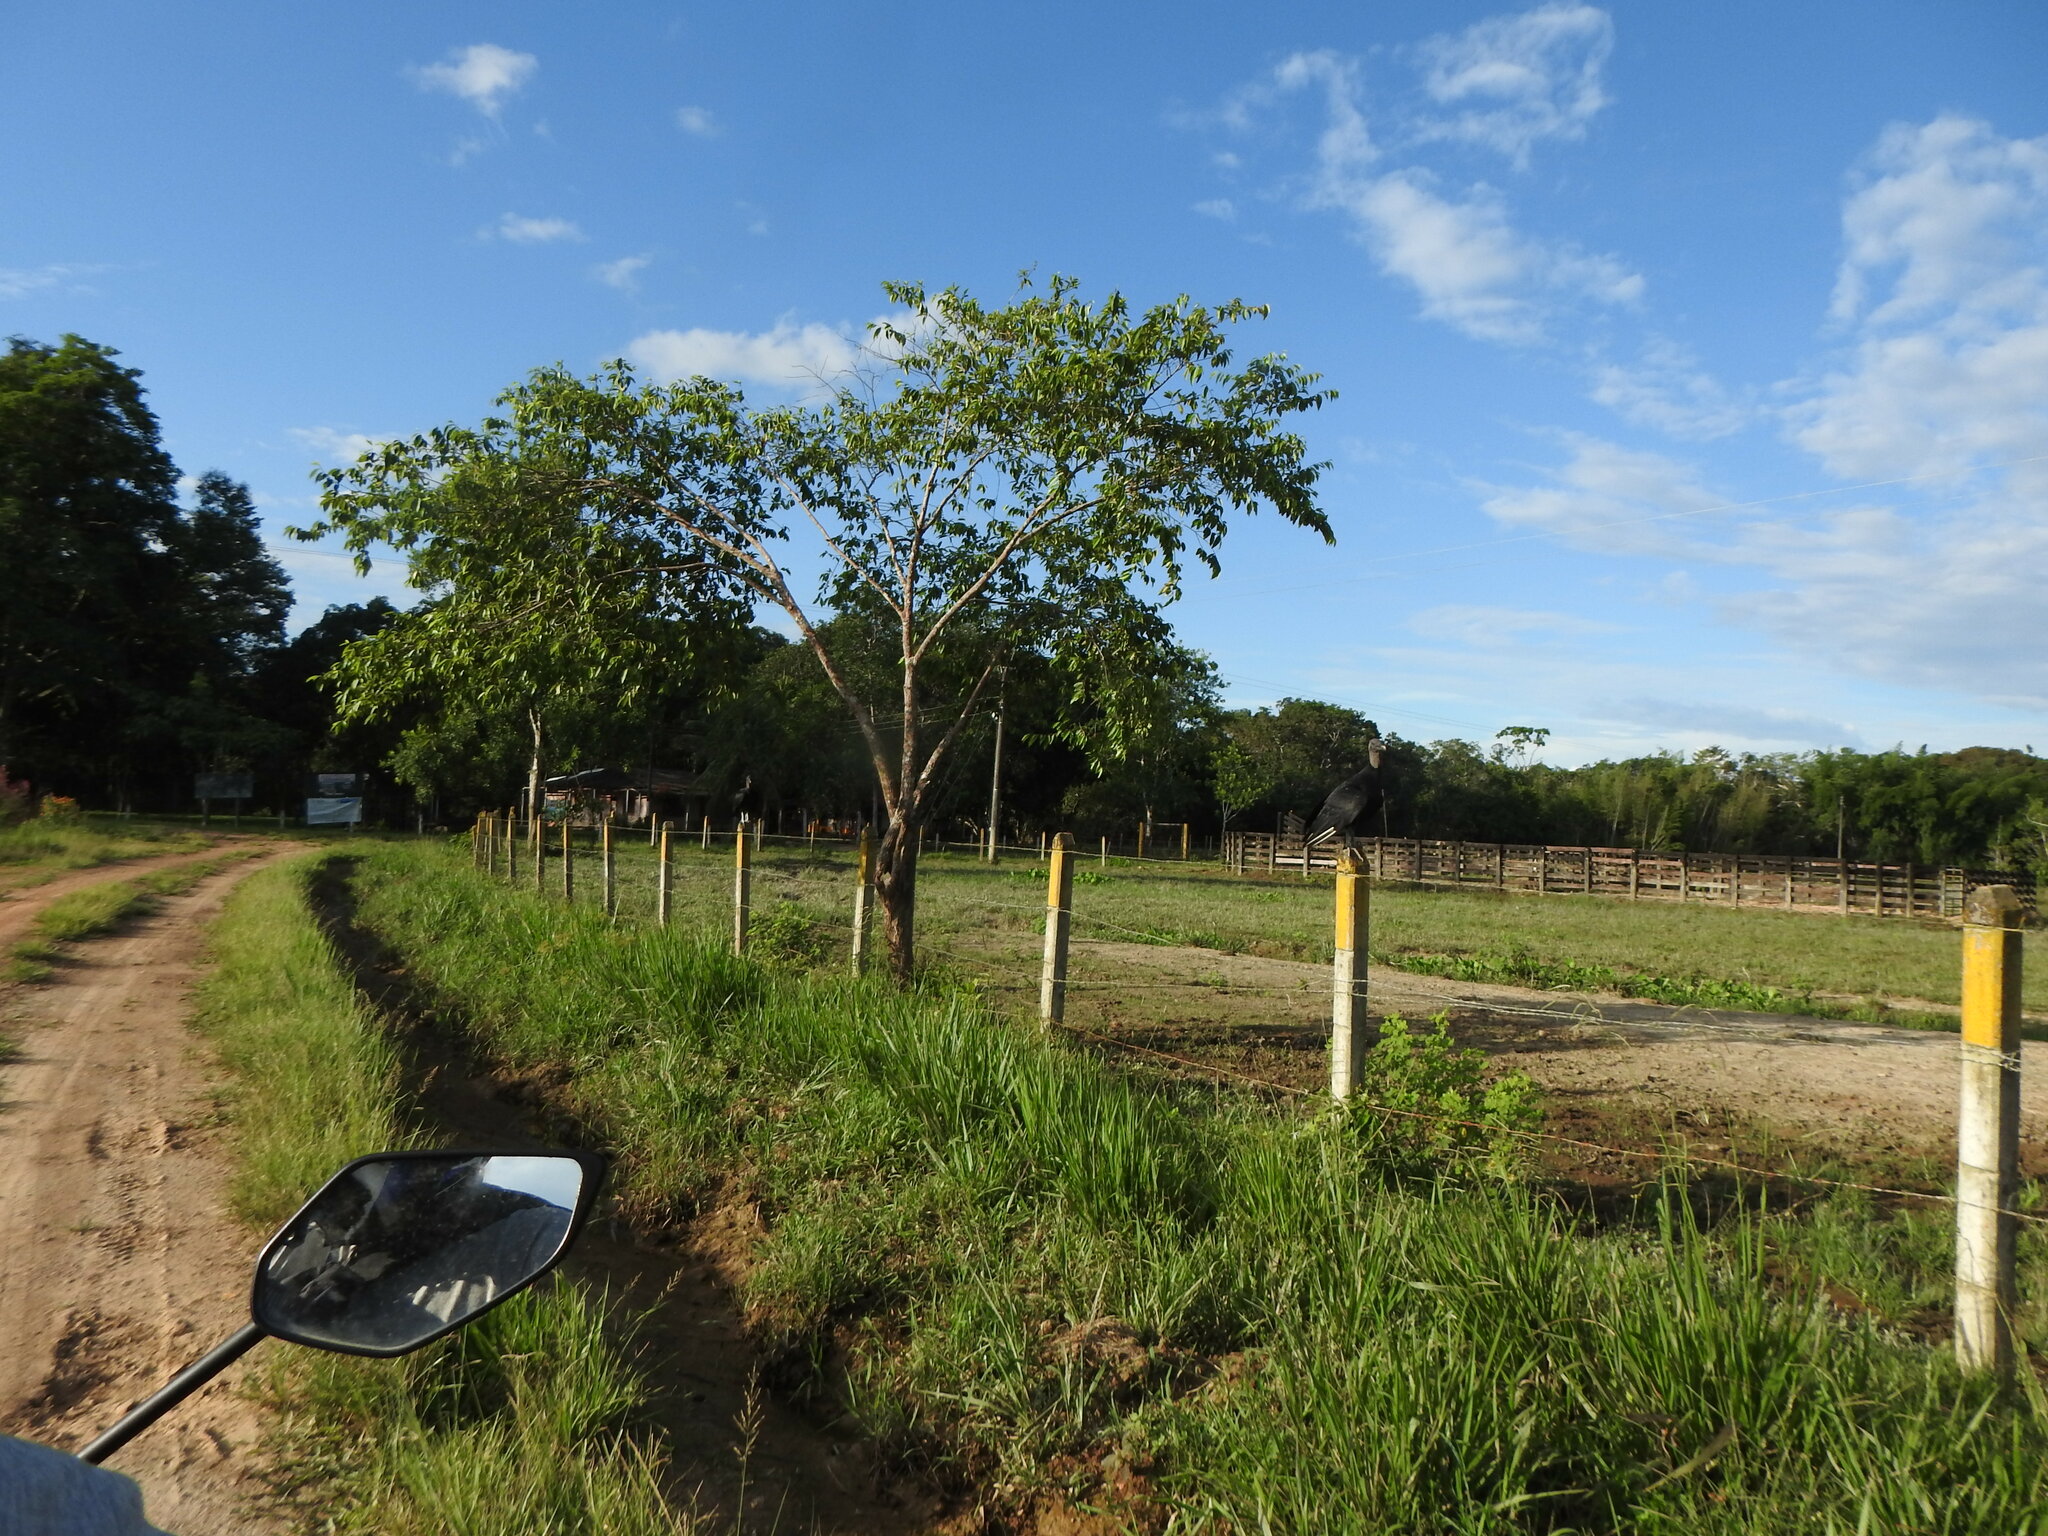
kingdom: Animalia
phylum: Chordata
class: Aves
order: Accipitriformes
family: Cathartidae
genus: Coragyps
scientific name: Coragyps atratus
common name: Black vulture
